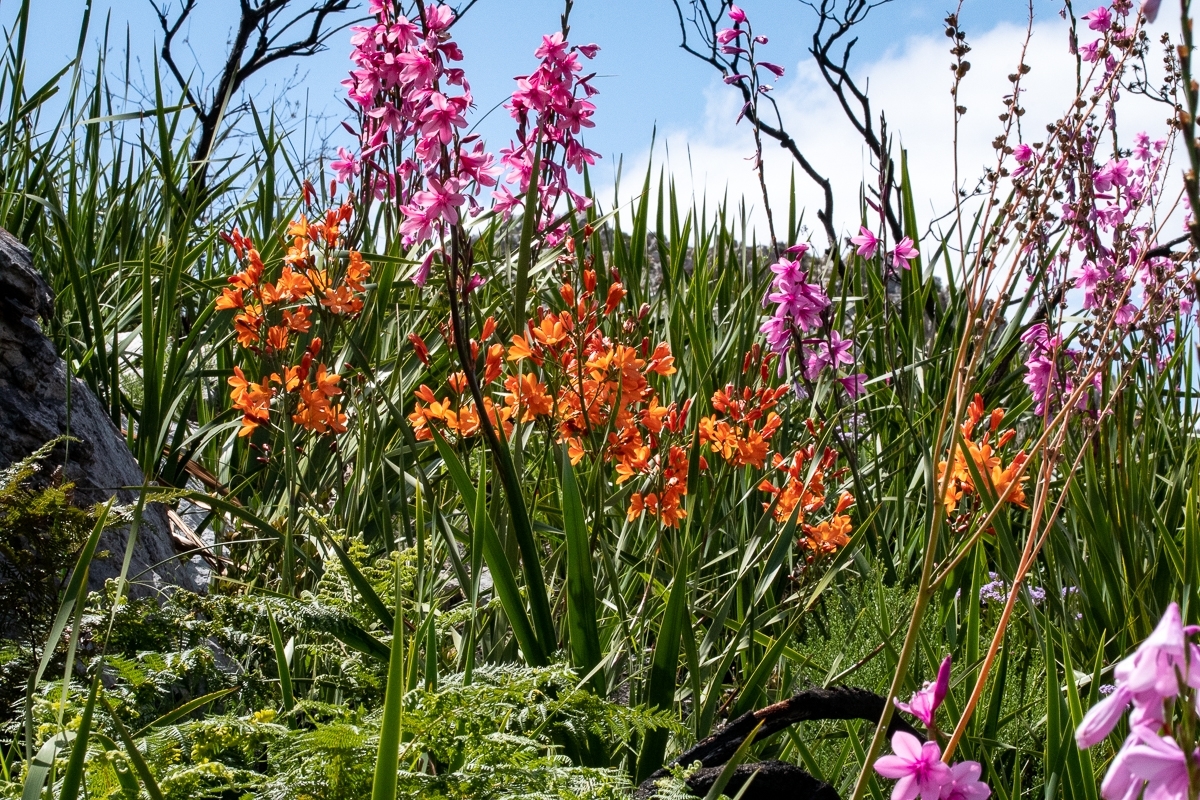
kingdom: Plantae
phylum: Tracheophyta
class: Liliopsida
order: Asparagales
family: Iridaceae
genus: Pillansia
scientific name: Pillansia templemannii
